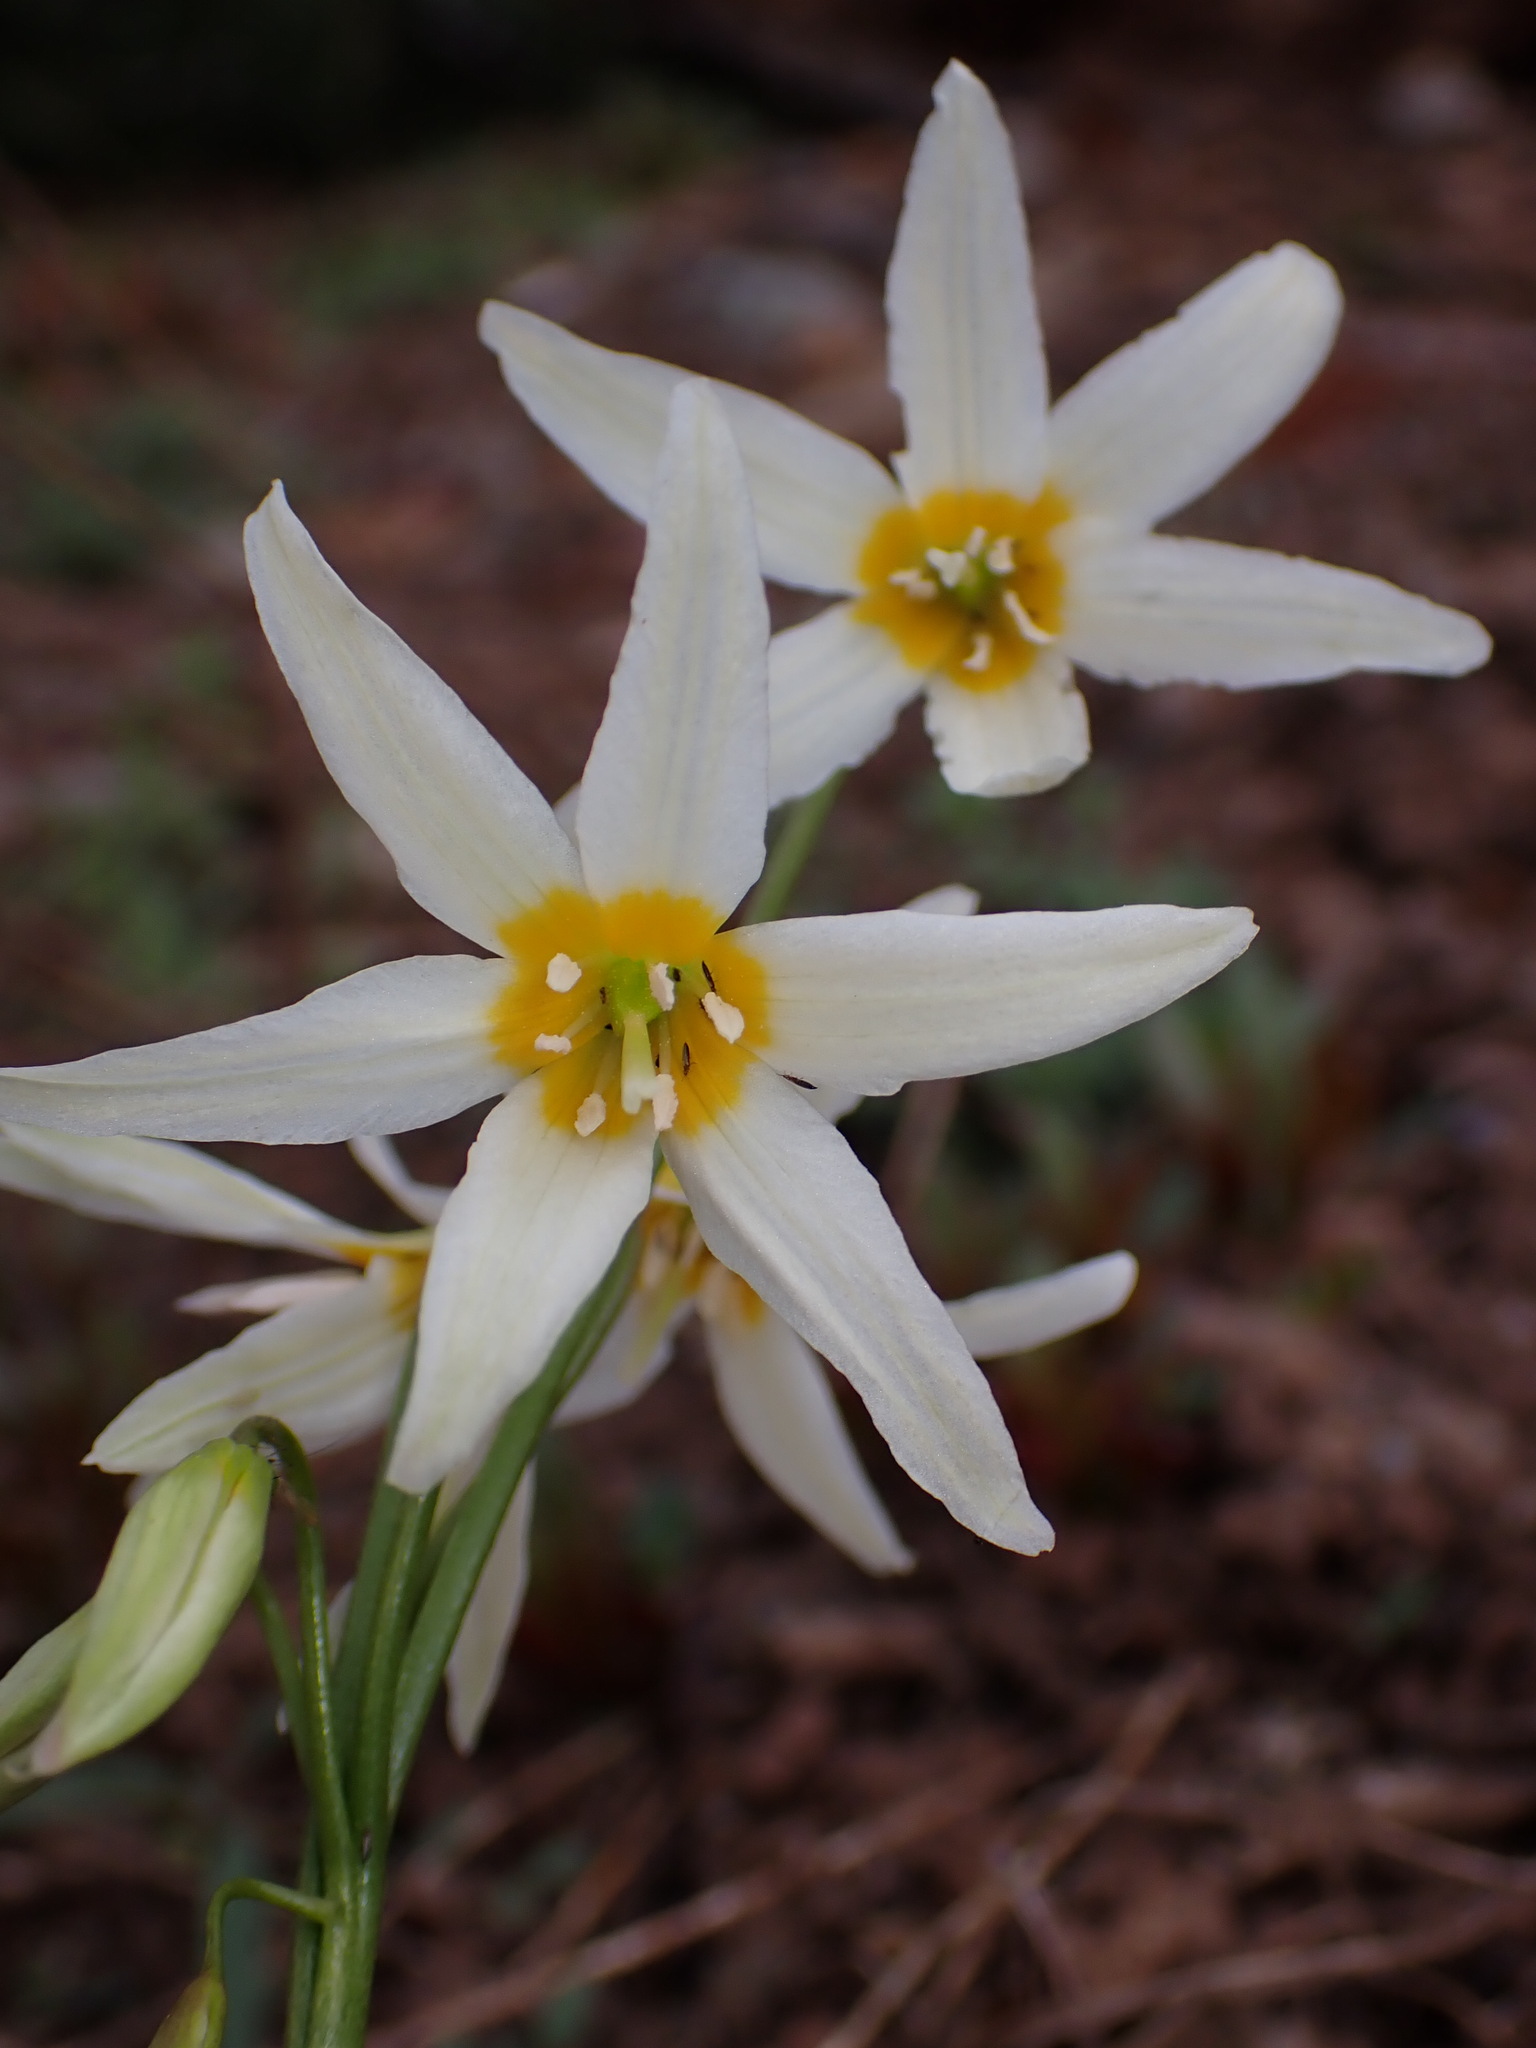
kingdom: Plantae
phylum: Tracheophyta
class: Liliopsida
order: Liliales
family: Liliaceae
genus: Erythronium
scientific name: Erythronium purpurascens
